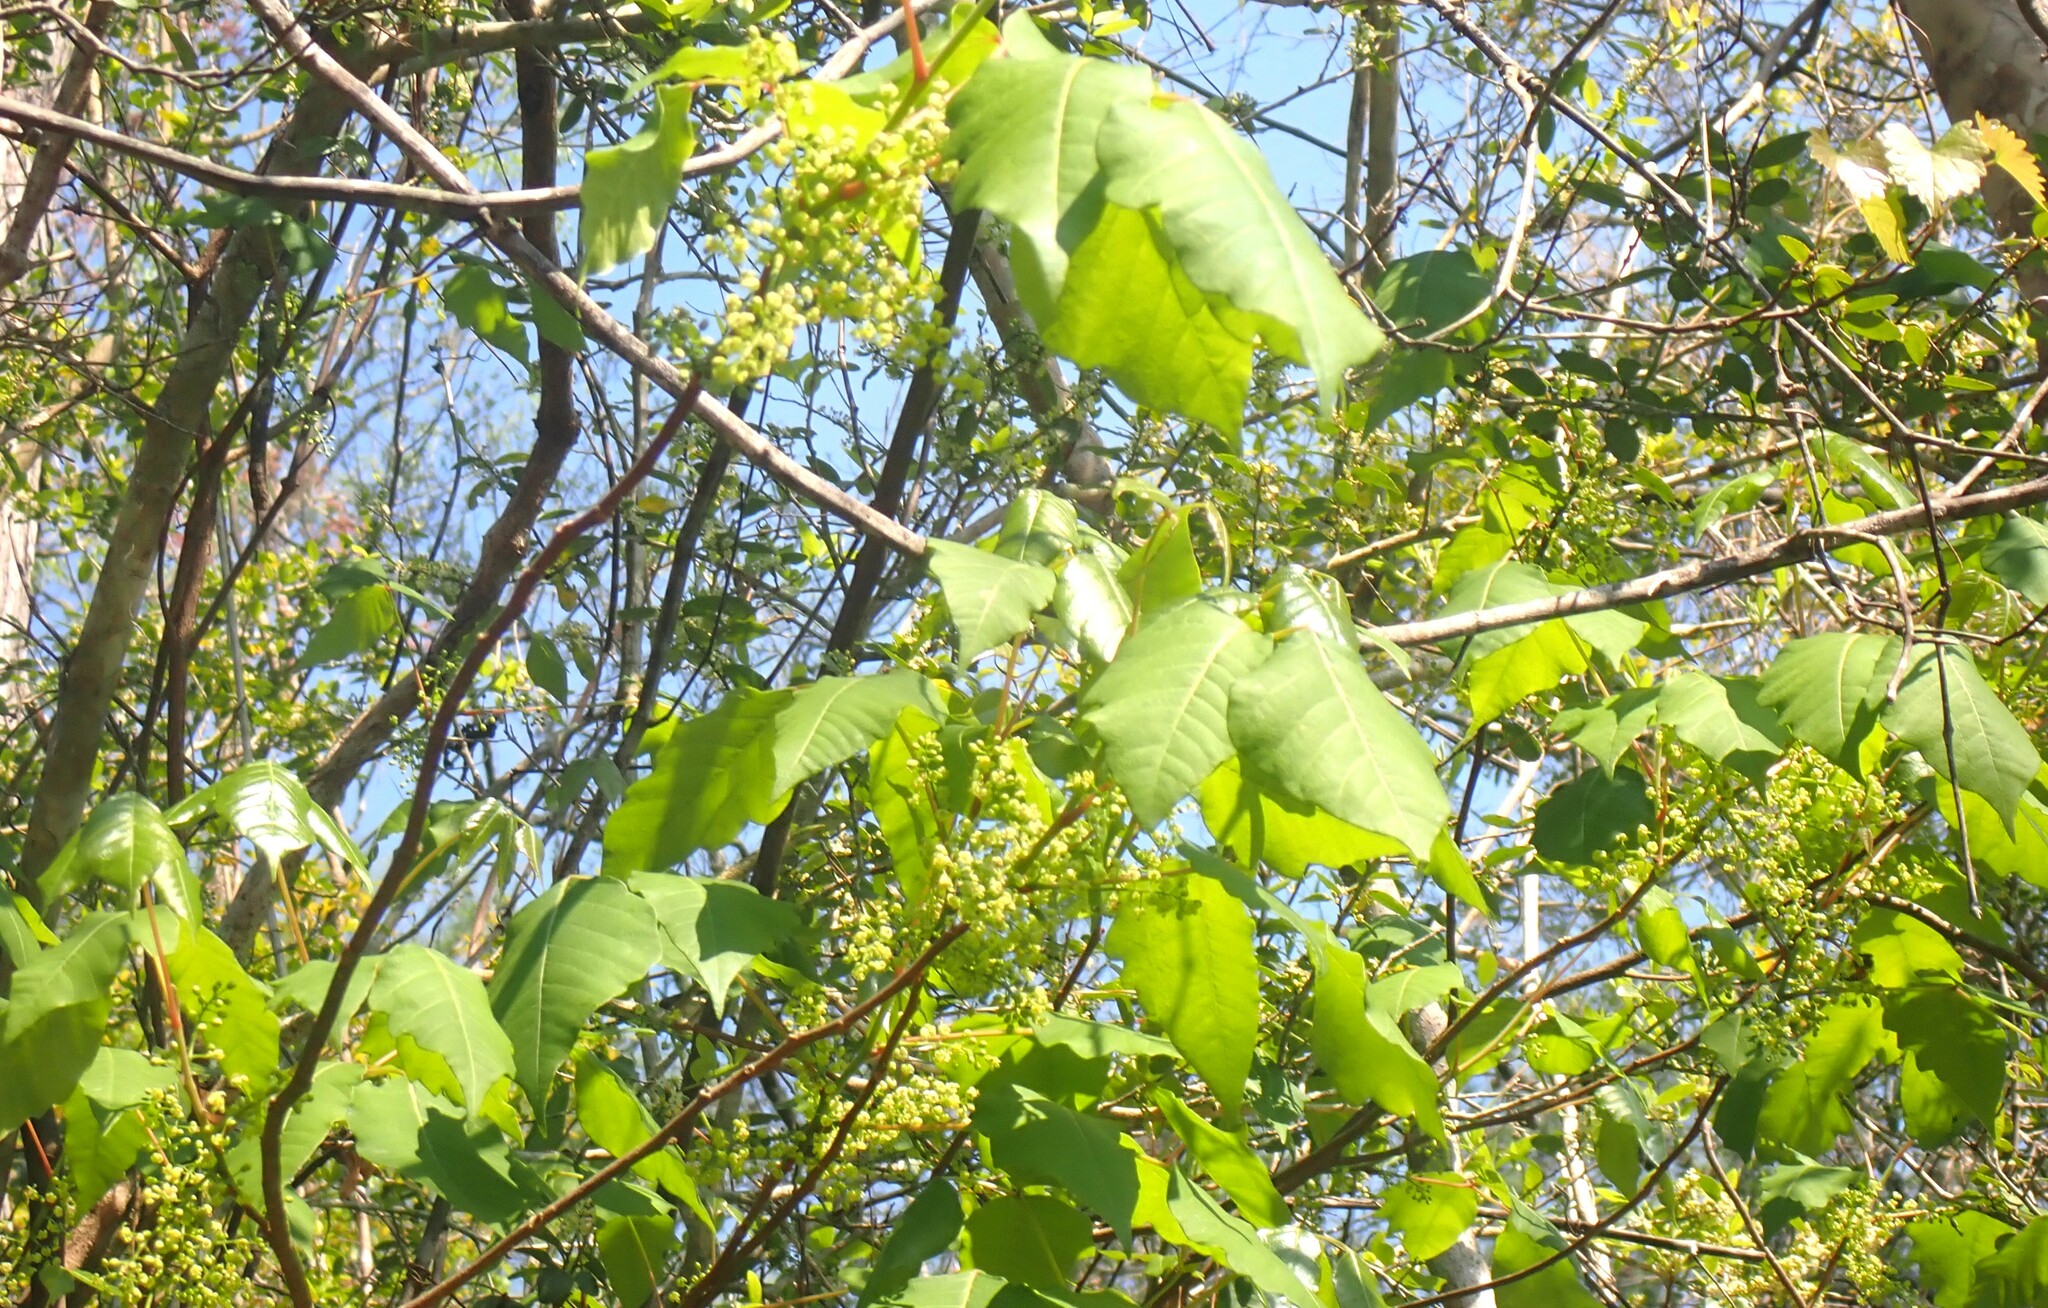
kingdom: Plantae
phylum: Tracheophyta
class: Magnoliopsida
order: Sapindales
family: Anacardiaceae
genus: Toxicodendron
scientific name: Toxicodendron radicans
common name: Poison ivy
